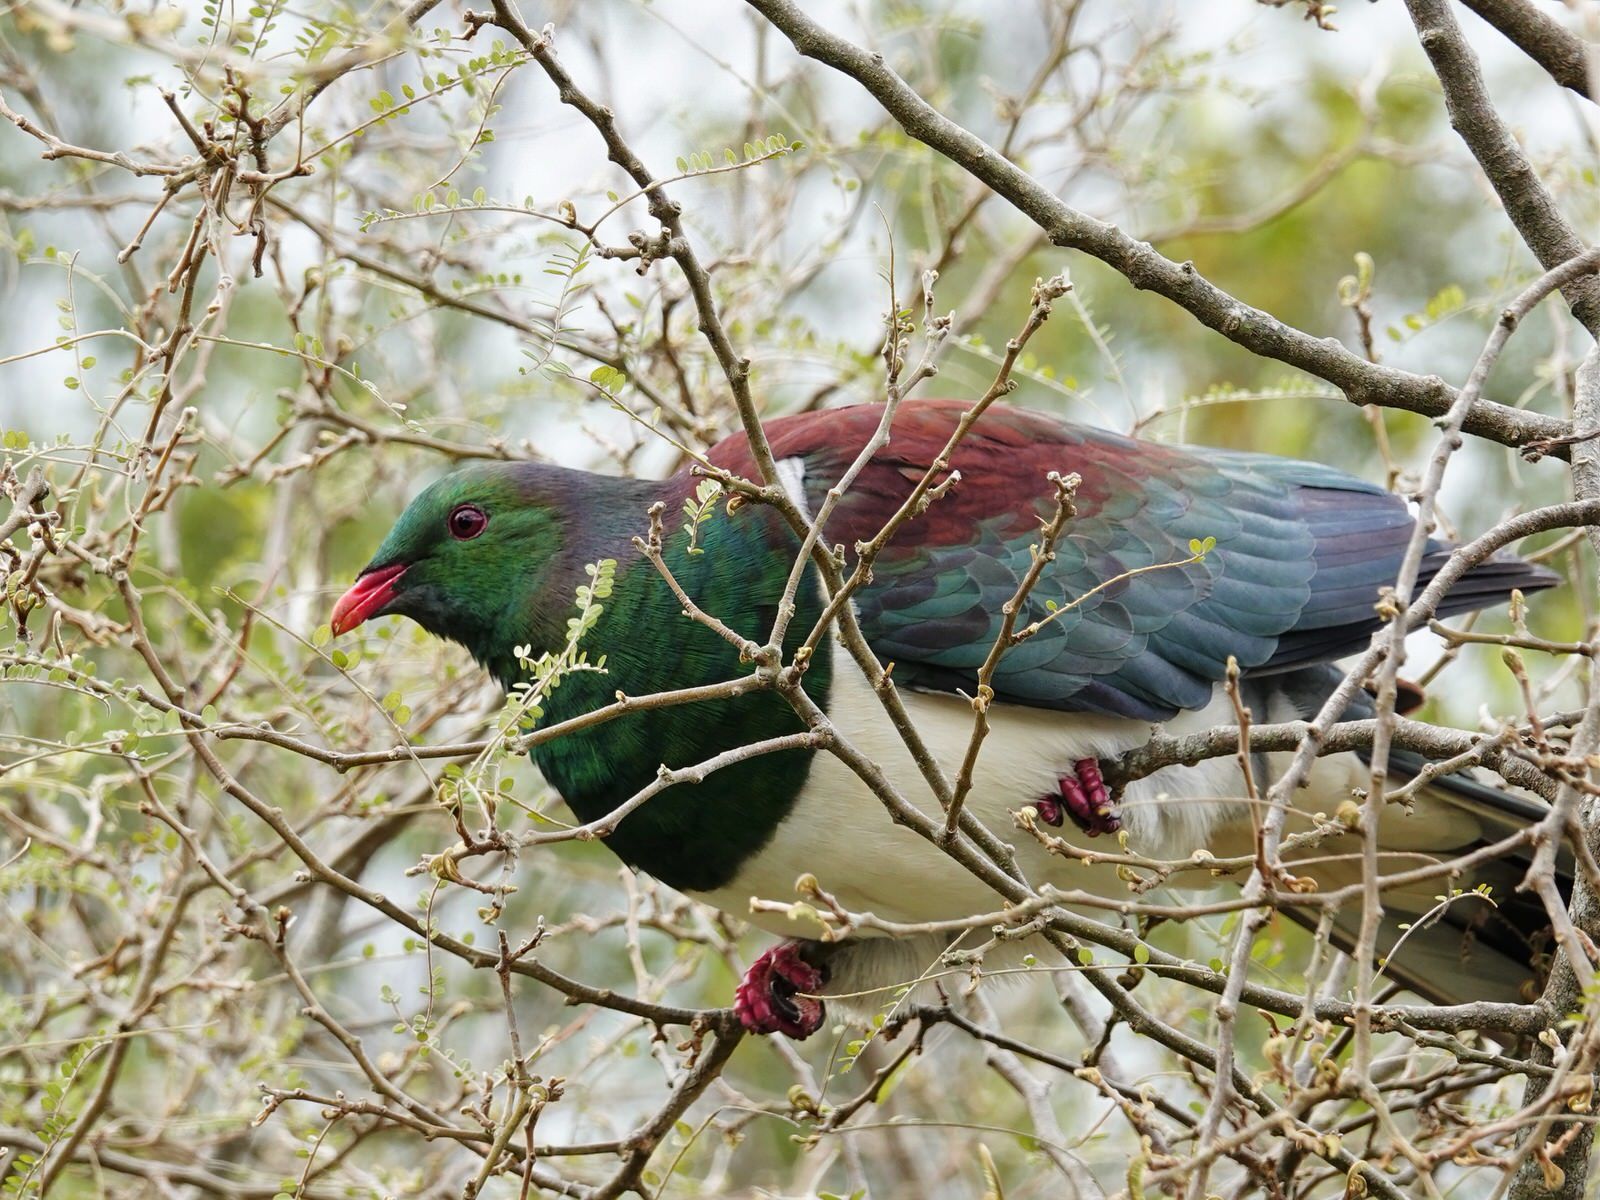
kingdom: Animalia
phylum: Chordata
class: Aves
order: Columbiformes
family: Columbidae
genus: Hemiphaga
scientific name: Hemiphaga novaeseelandiae
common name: New zealand pigeon
